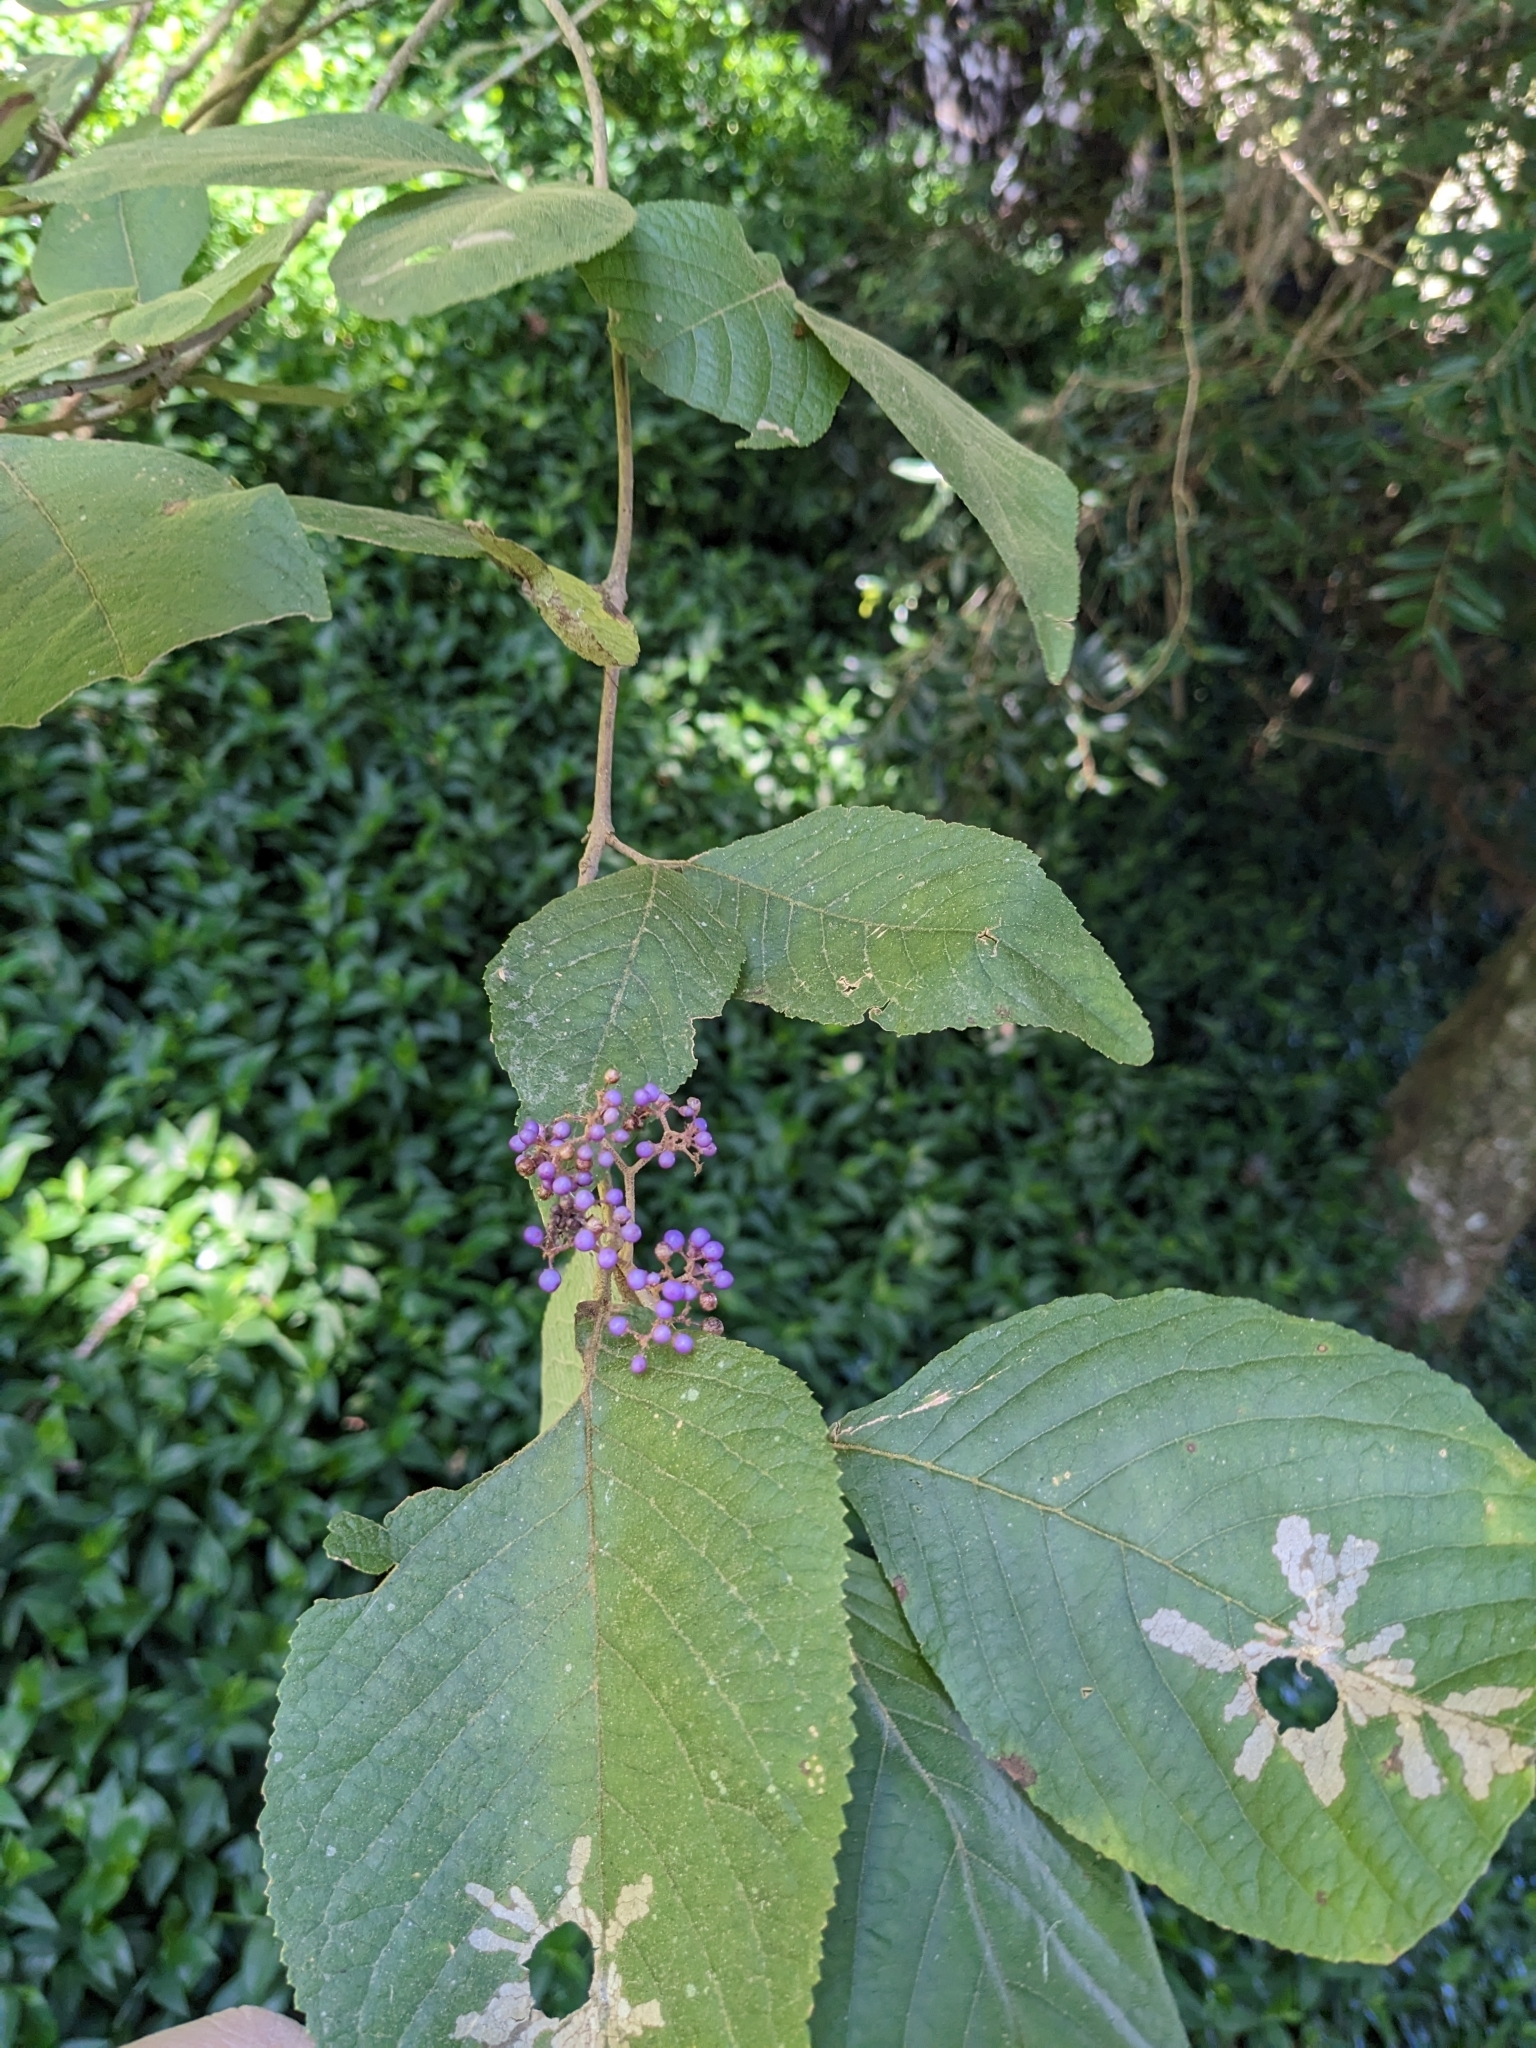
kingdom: Plantae
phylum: Tracheophyta
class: Magnoliopsida
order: Lamiales
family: Lamiaceae
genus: Callicarpa
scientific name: Callicarpa pedunculata
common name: Velvetleaf
